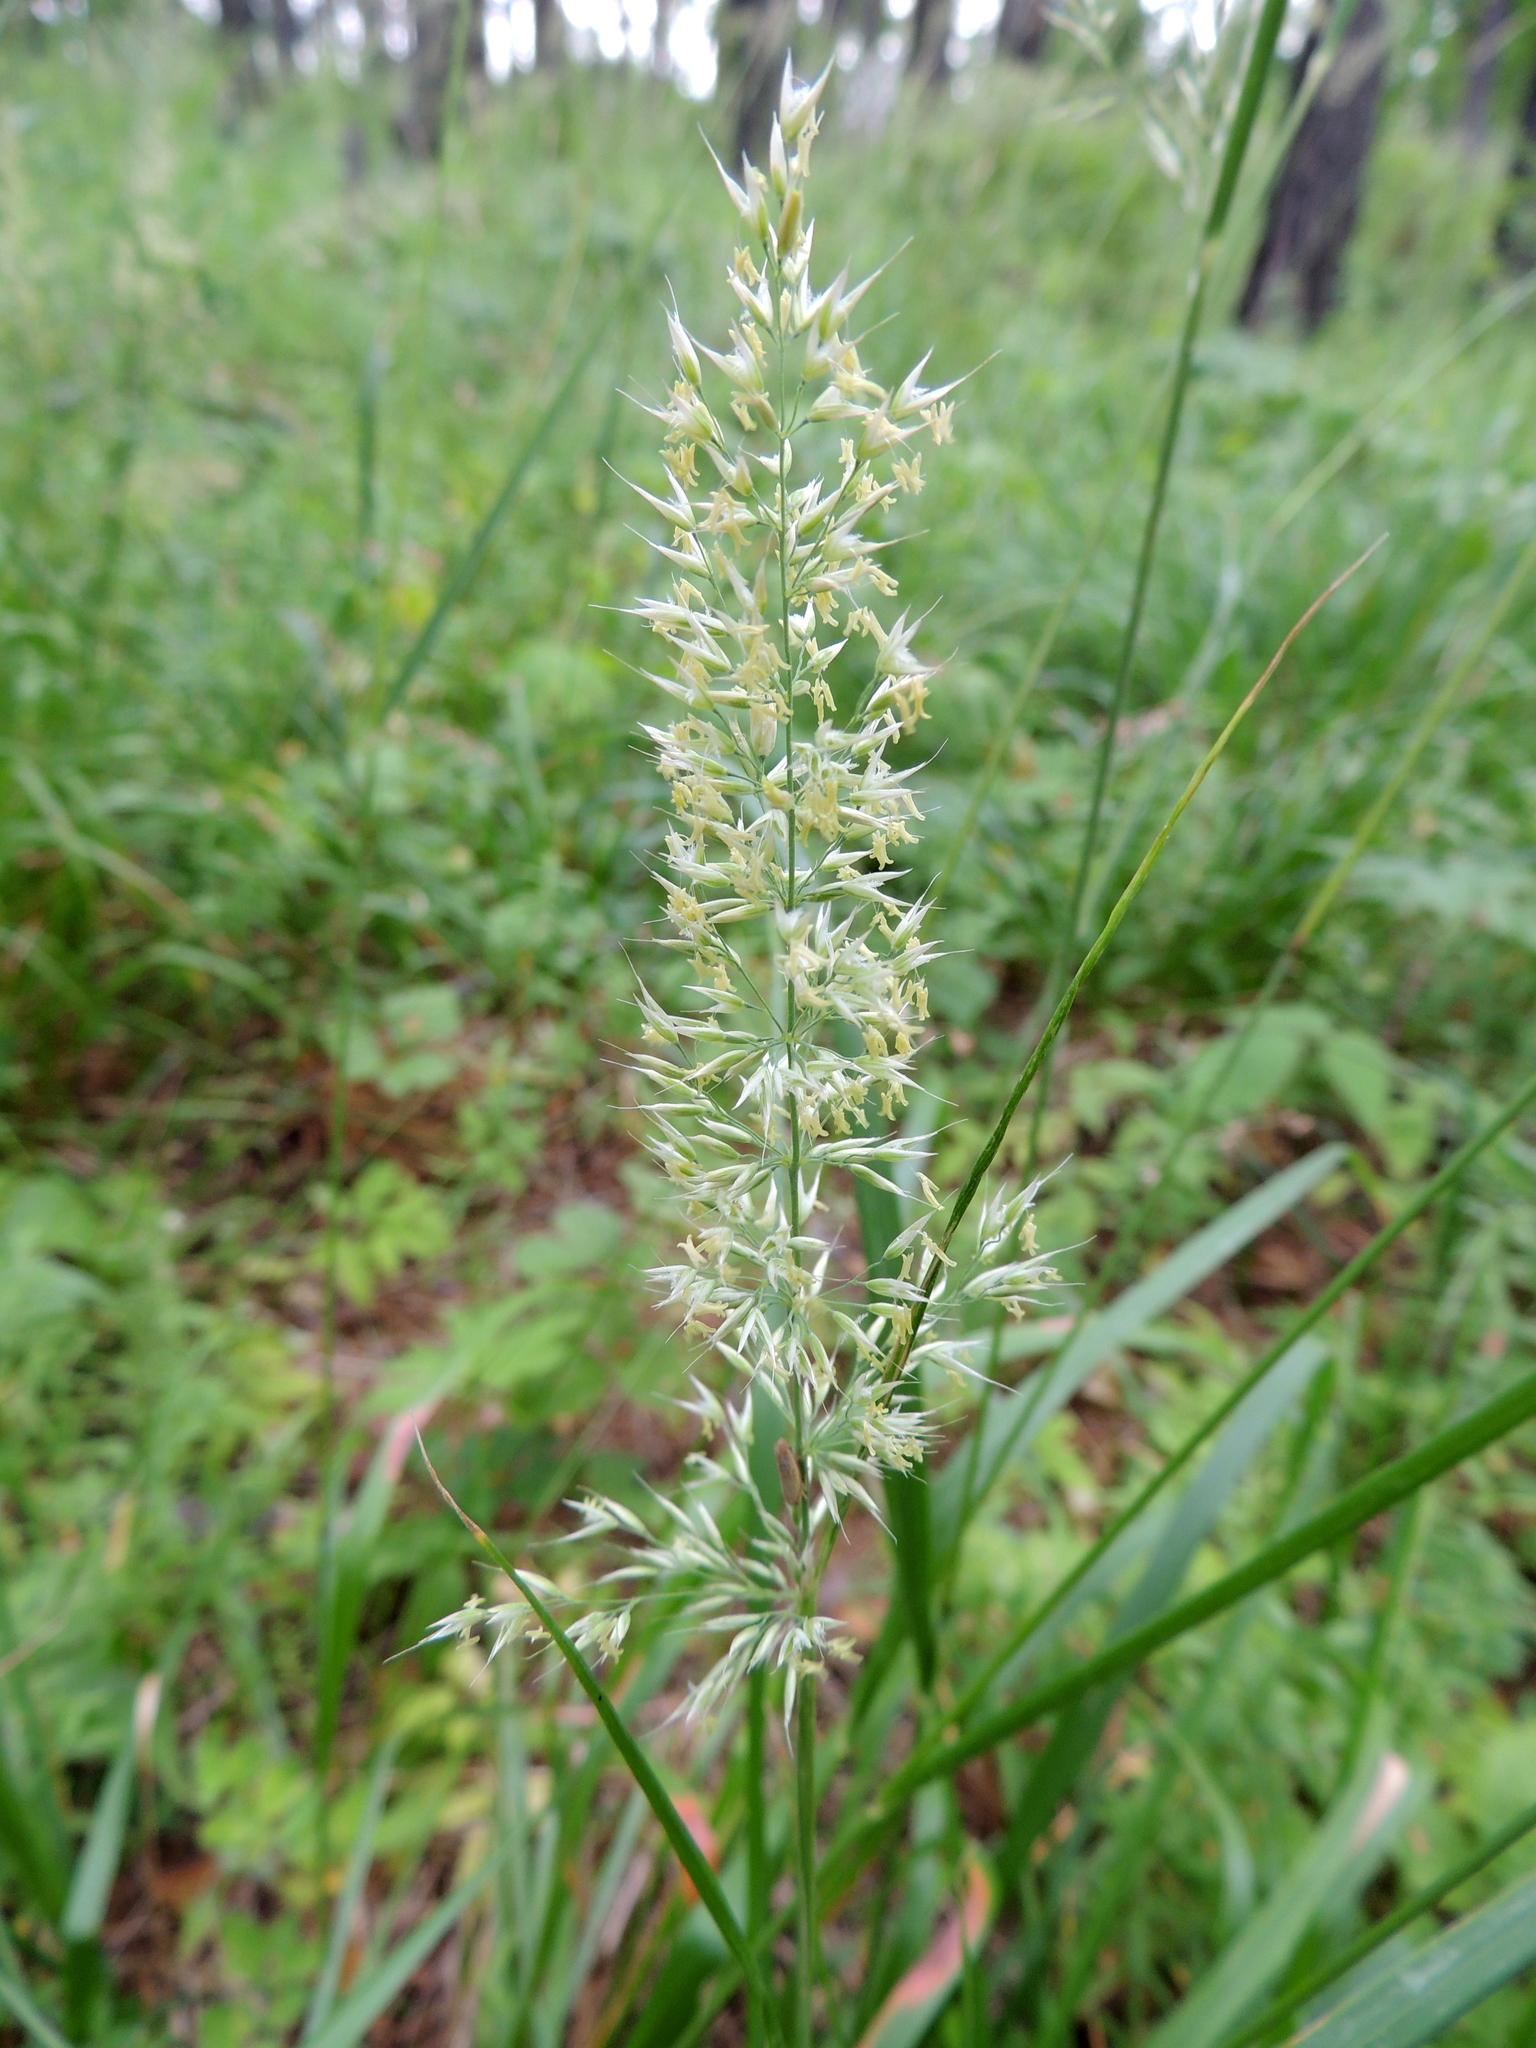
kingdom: Plantae
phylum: Tracheophyta
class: Liliopsida
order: Poales
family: Poaceae
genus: Calamagrostis
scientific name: Calamagrostis obtusata
